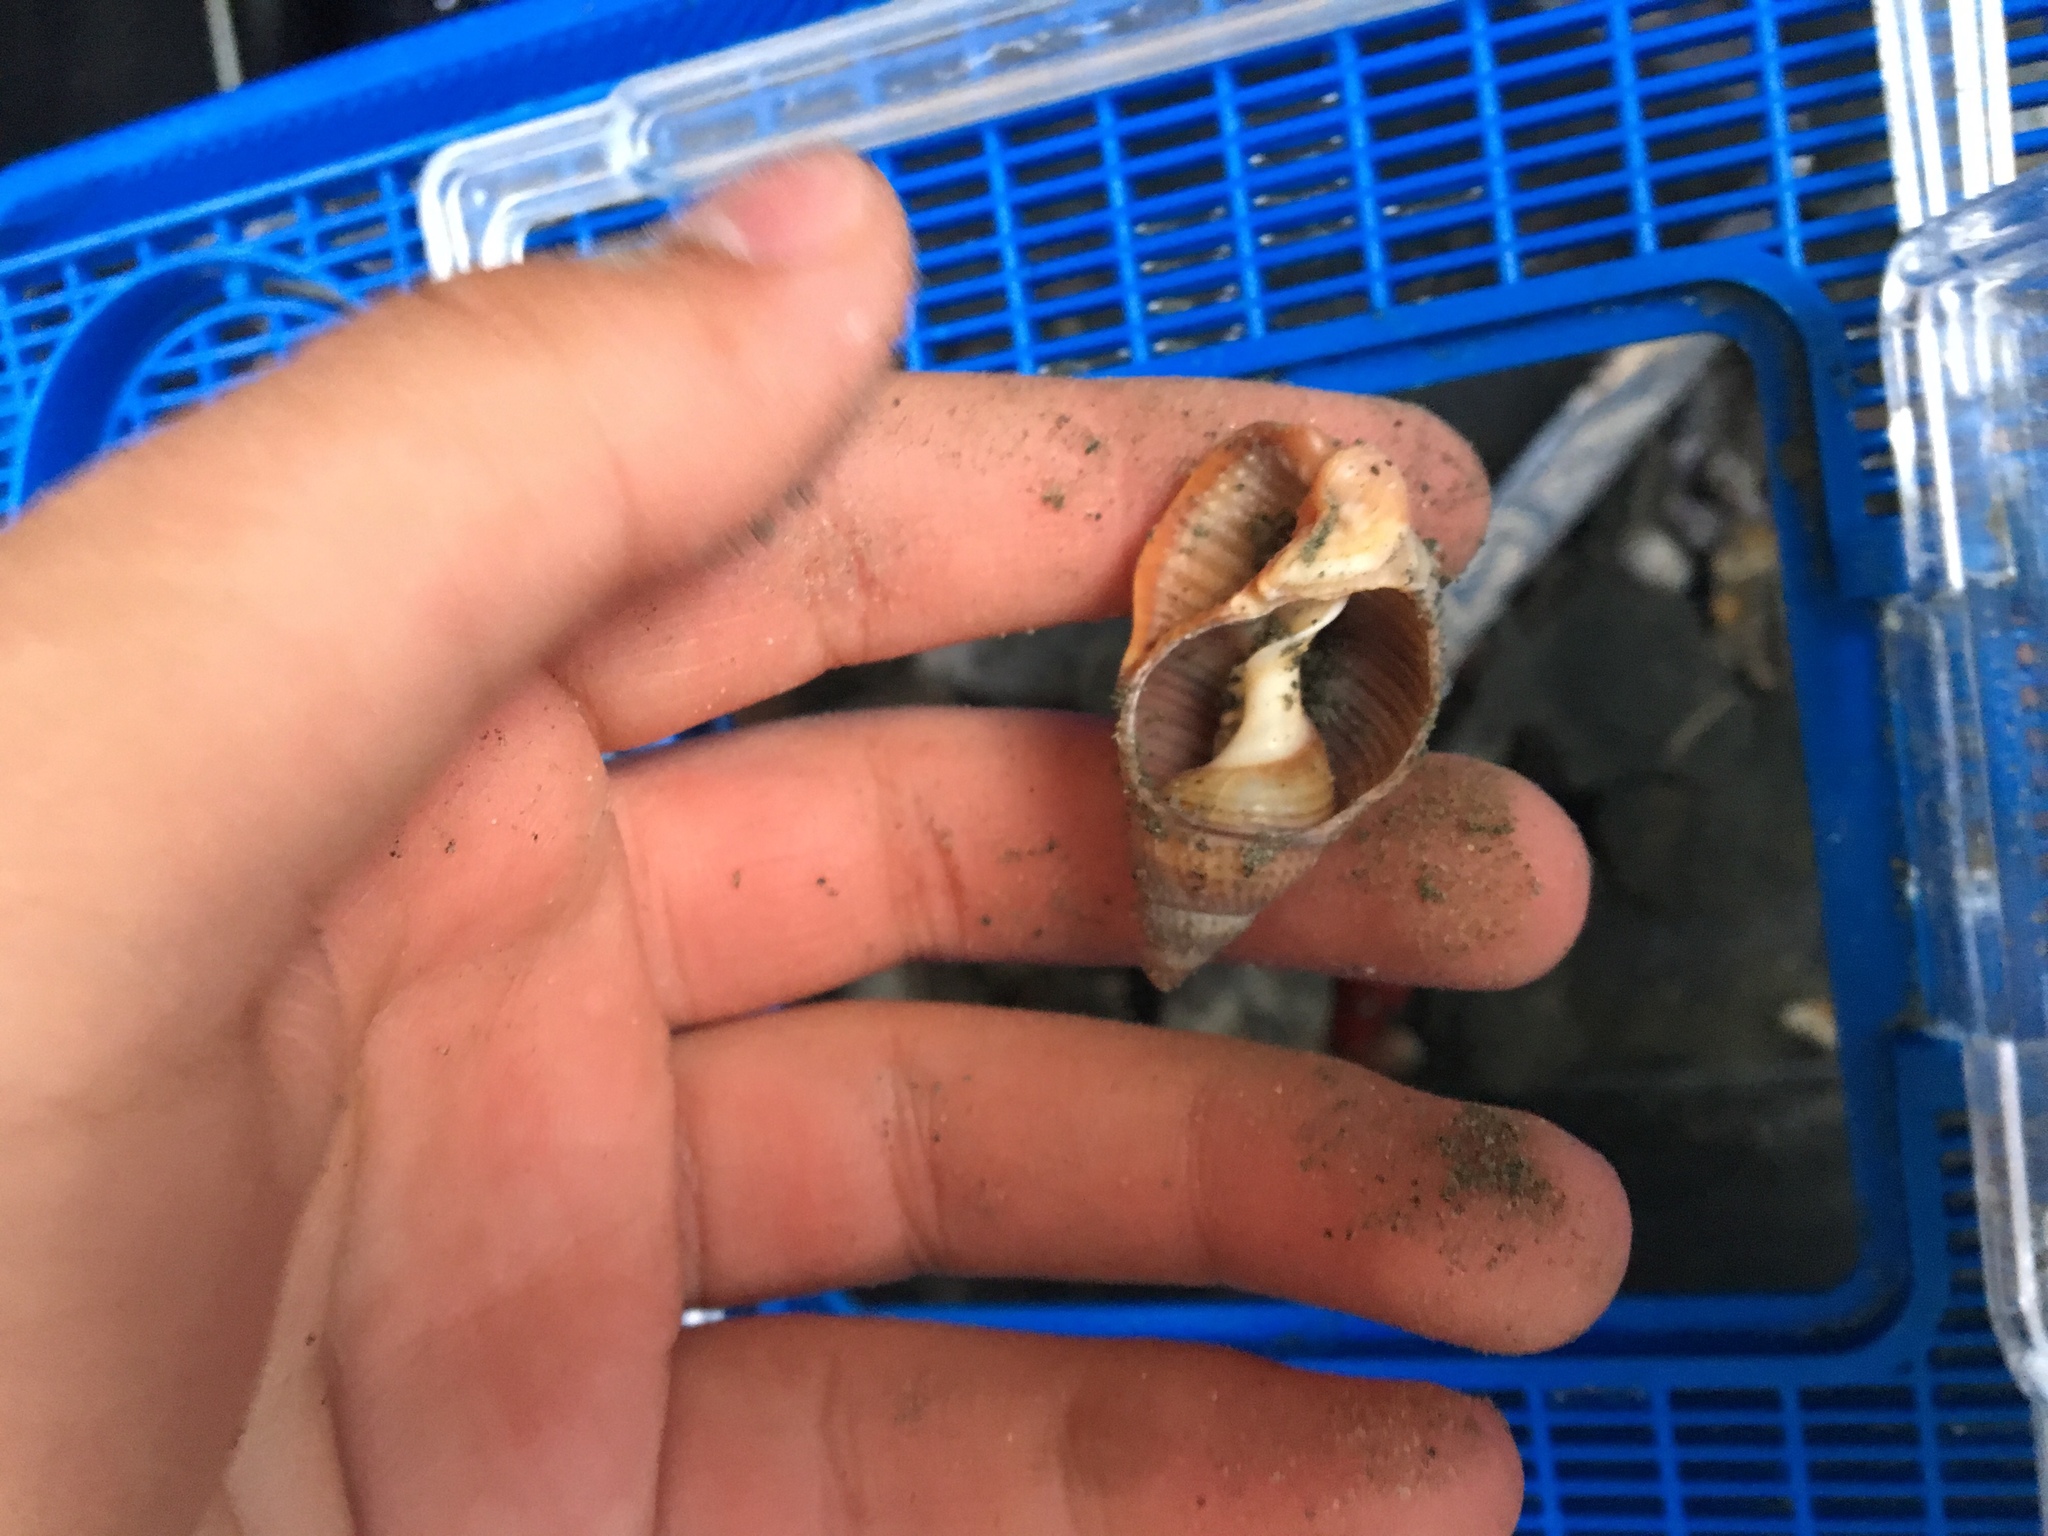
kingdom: Animalia
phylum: Mollusca
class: Gastropoda
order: Neogastropoda
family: Nassariidae
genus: Caesia
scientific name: Caesia fossata
